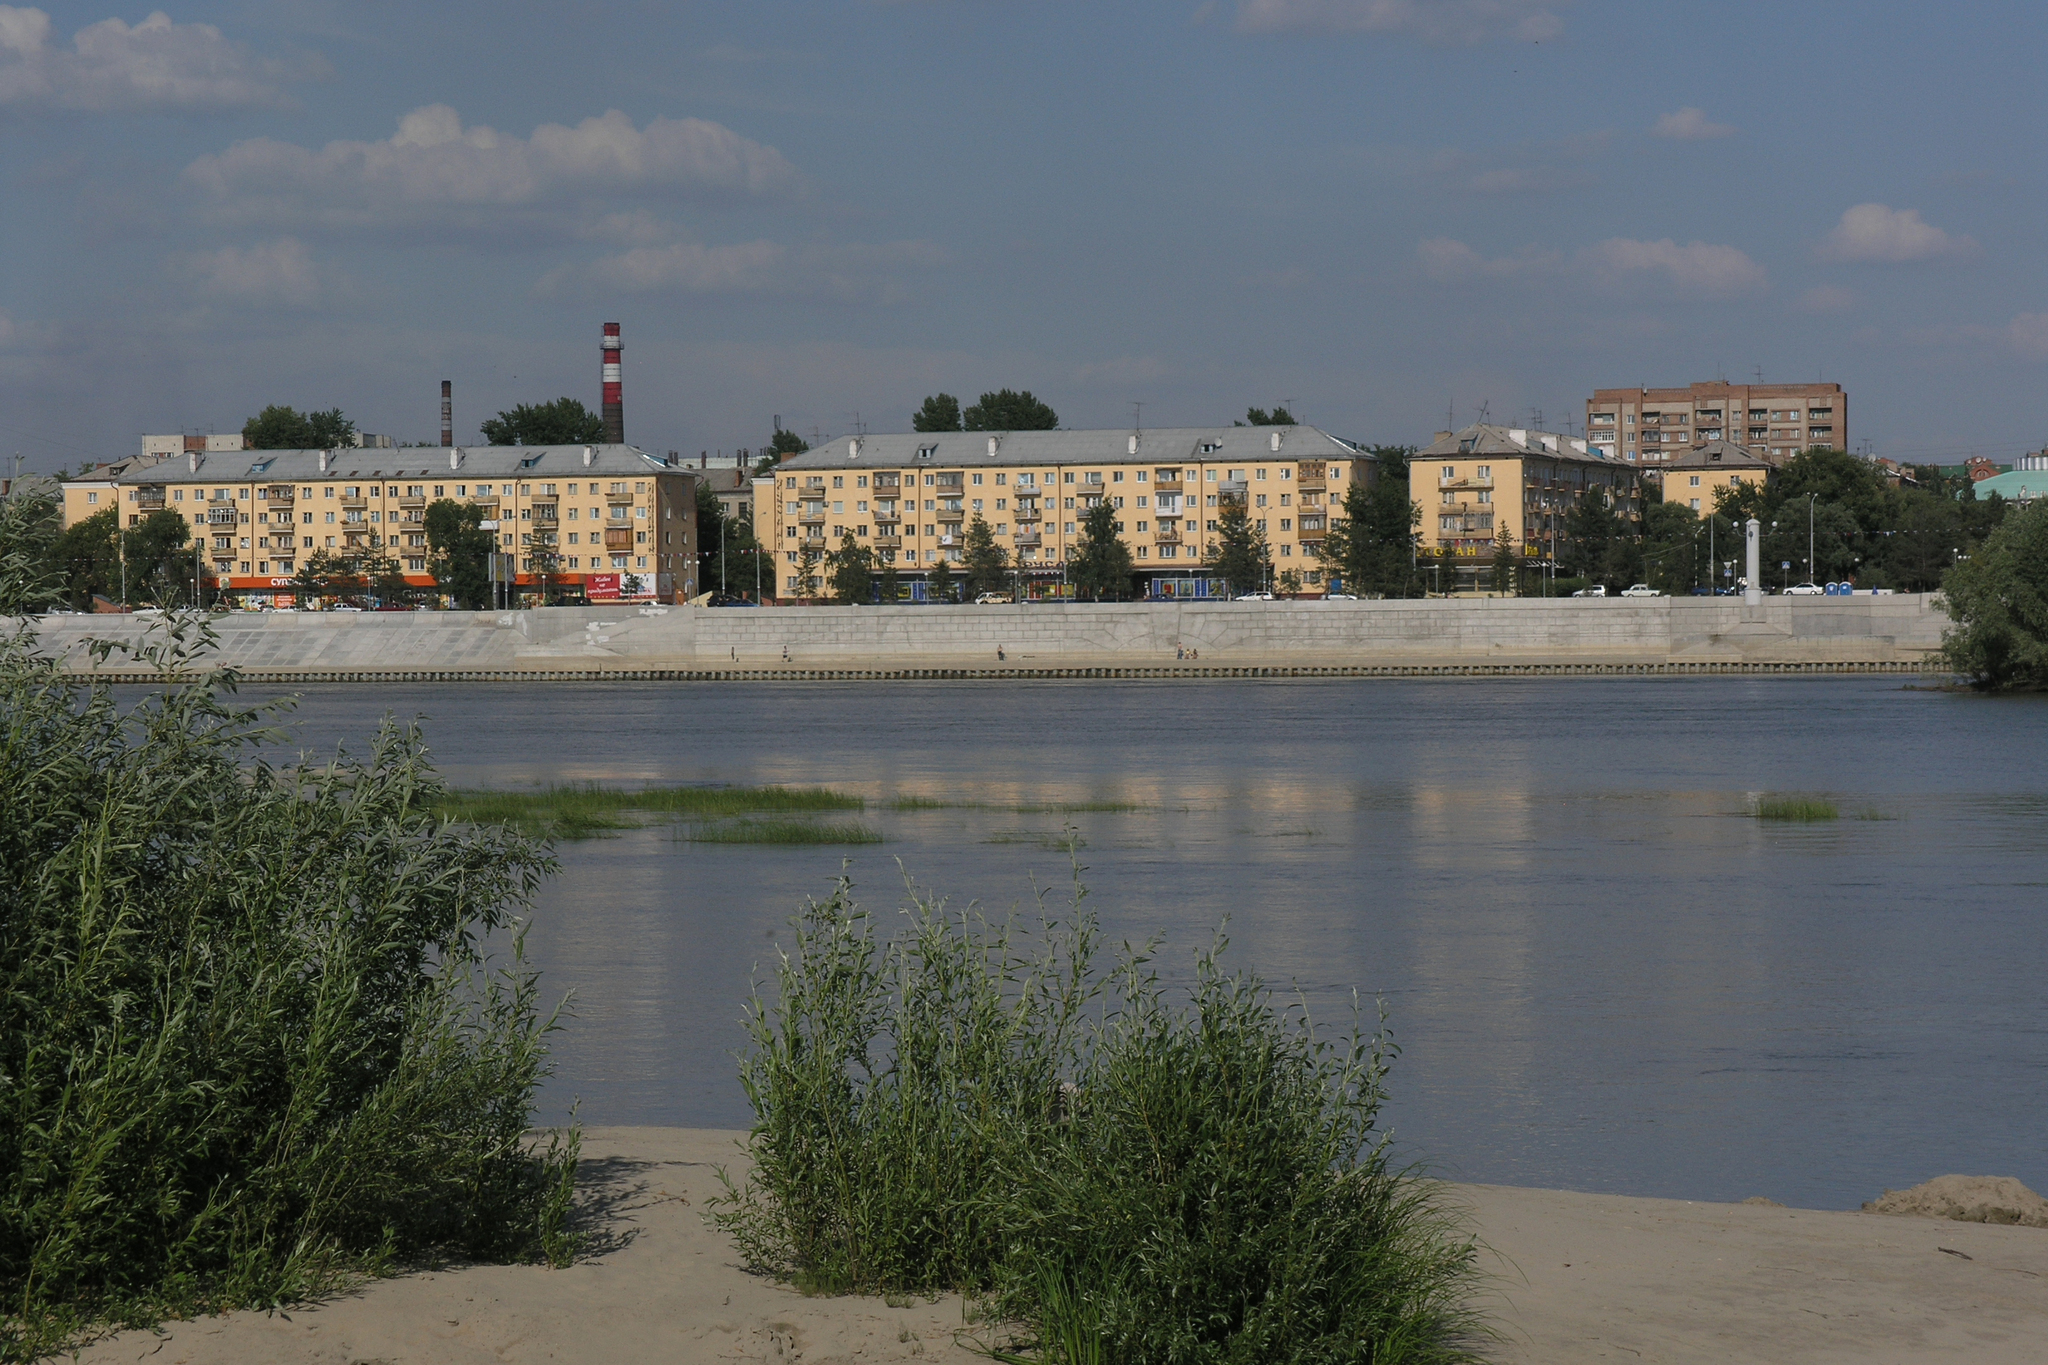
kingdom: Plantae
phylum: Tracheophyta
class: Magnoliopsida
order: Malpighiales
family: Salicaceae
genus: Salix
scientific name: Salix alba
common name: White willow
